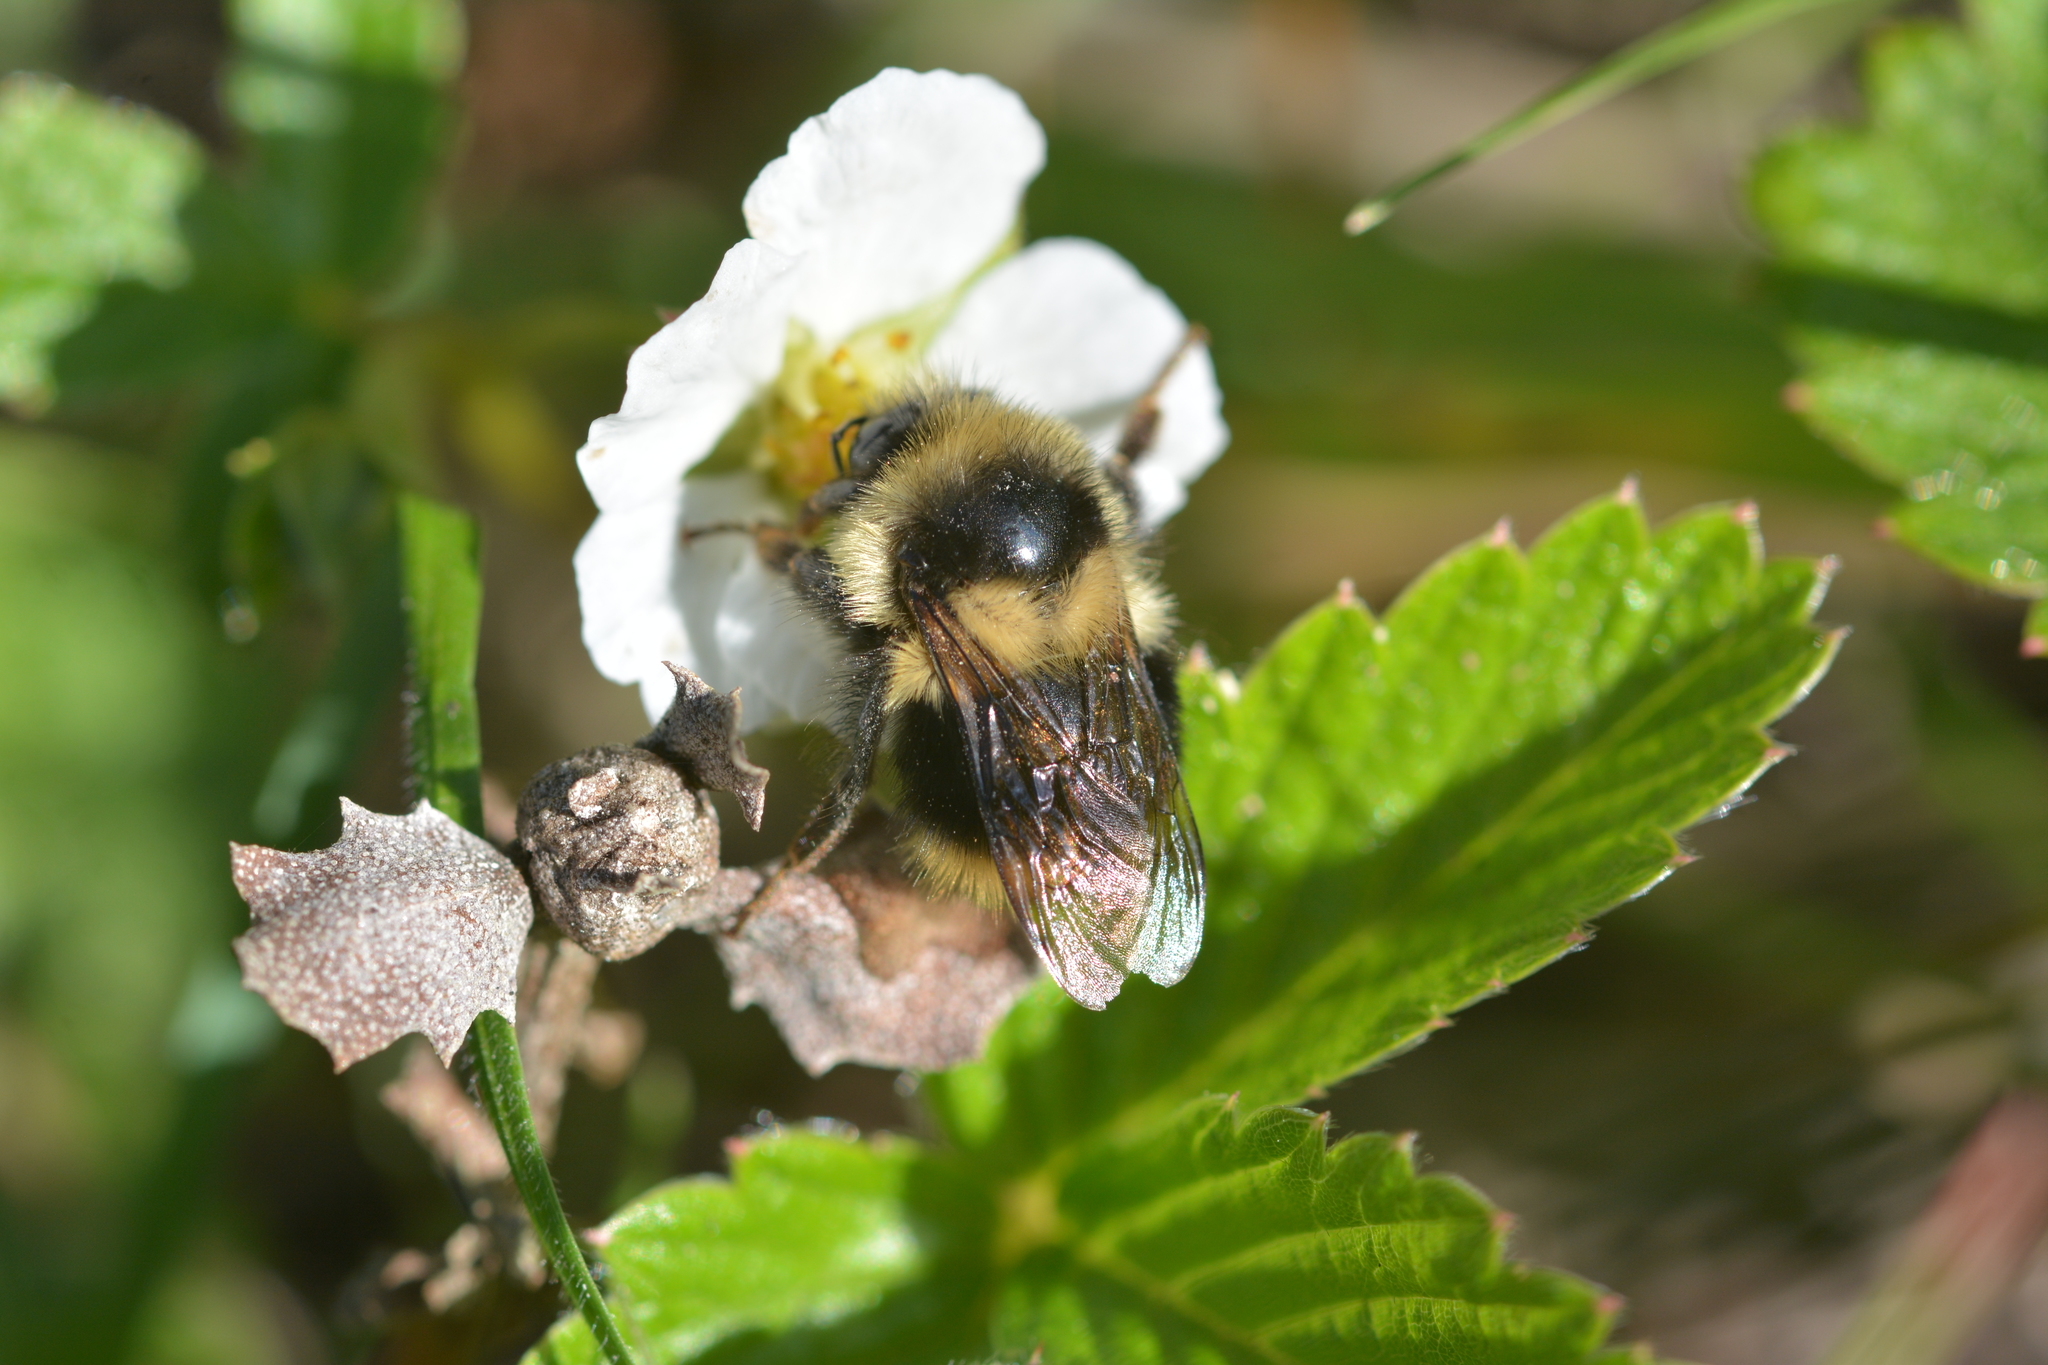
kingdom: Animalia
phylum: Arthropoda
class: Insecta
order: Hymenoptera
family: Apidae
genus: Bombus
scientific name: Bombus melanopygus
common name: Black tail bumble bee
